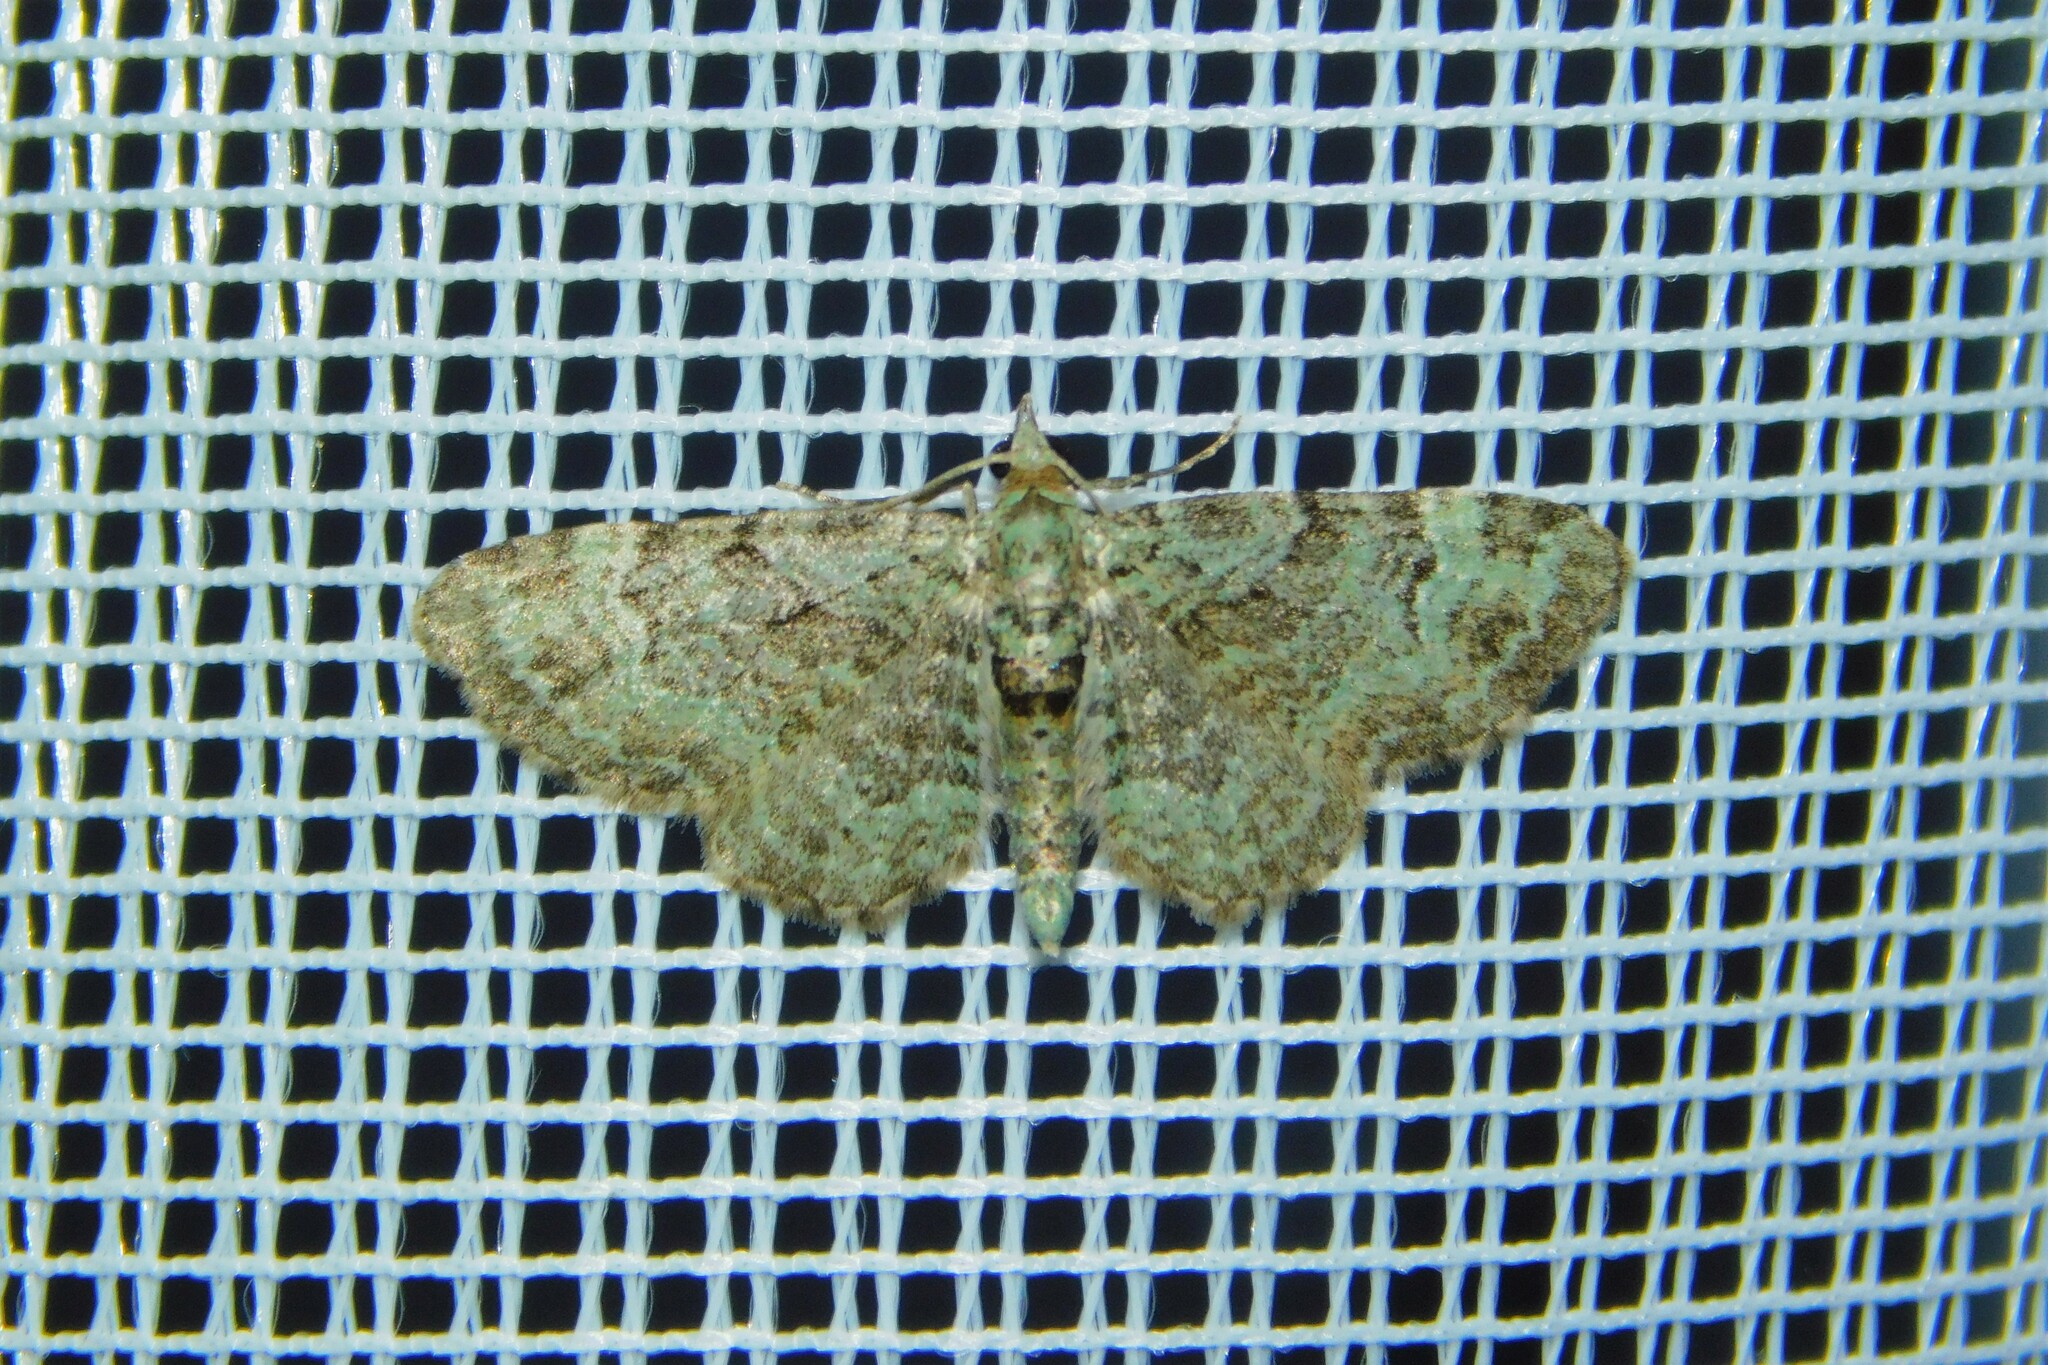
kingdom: Animalia
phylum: Arthropoda
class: Insecta
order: Lepidoptera
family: Geometridae
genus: Pasiphila
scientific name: Pasiphila rectangulata
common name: Green pug
